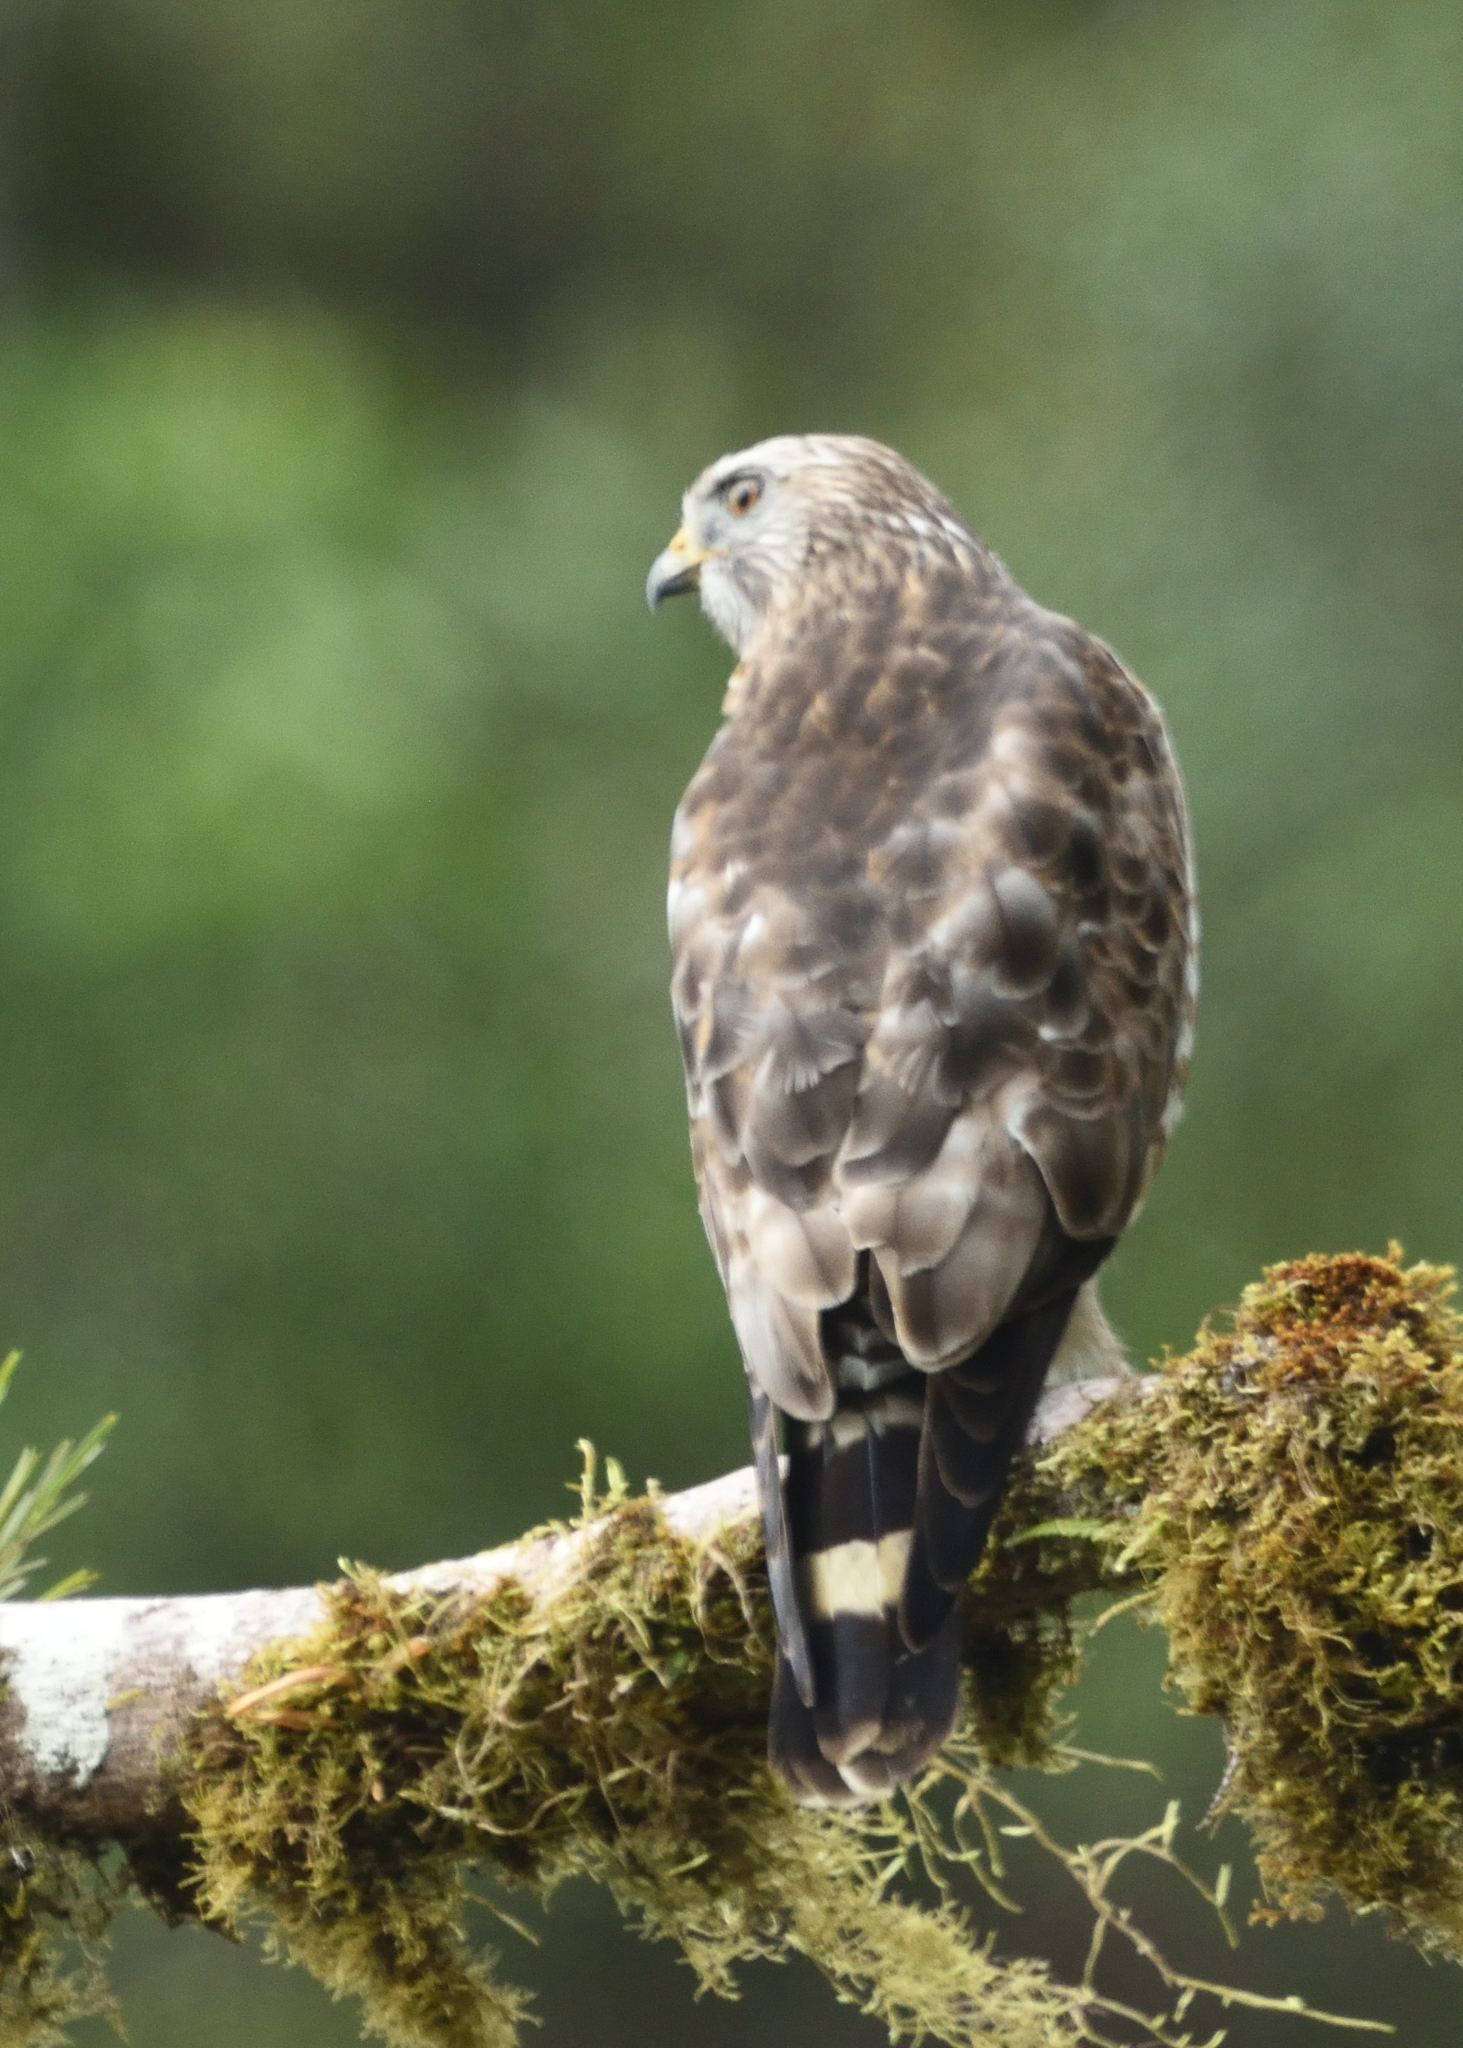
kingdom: Animalia
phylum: Chordata
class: Aves
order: Accipitriformes
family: Accipitridae
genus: Buteo
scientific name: Buteo platypterus
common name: Broad-winged hawk
